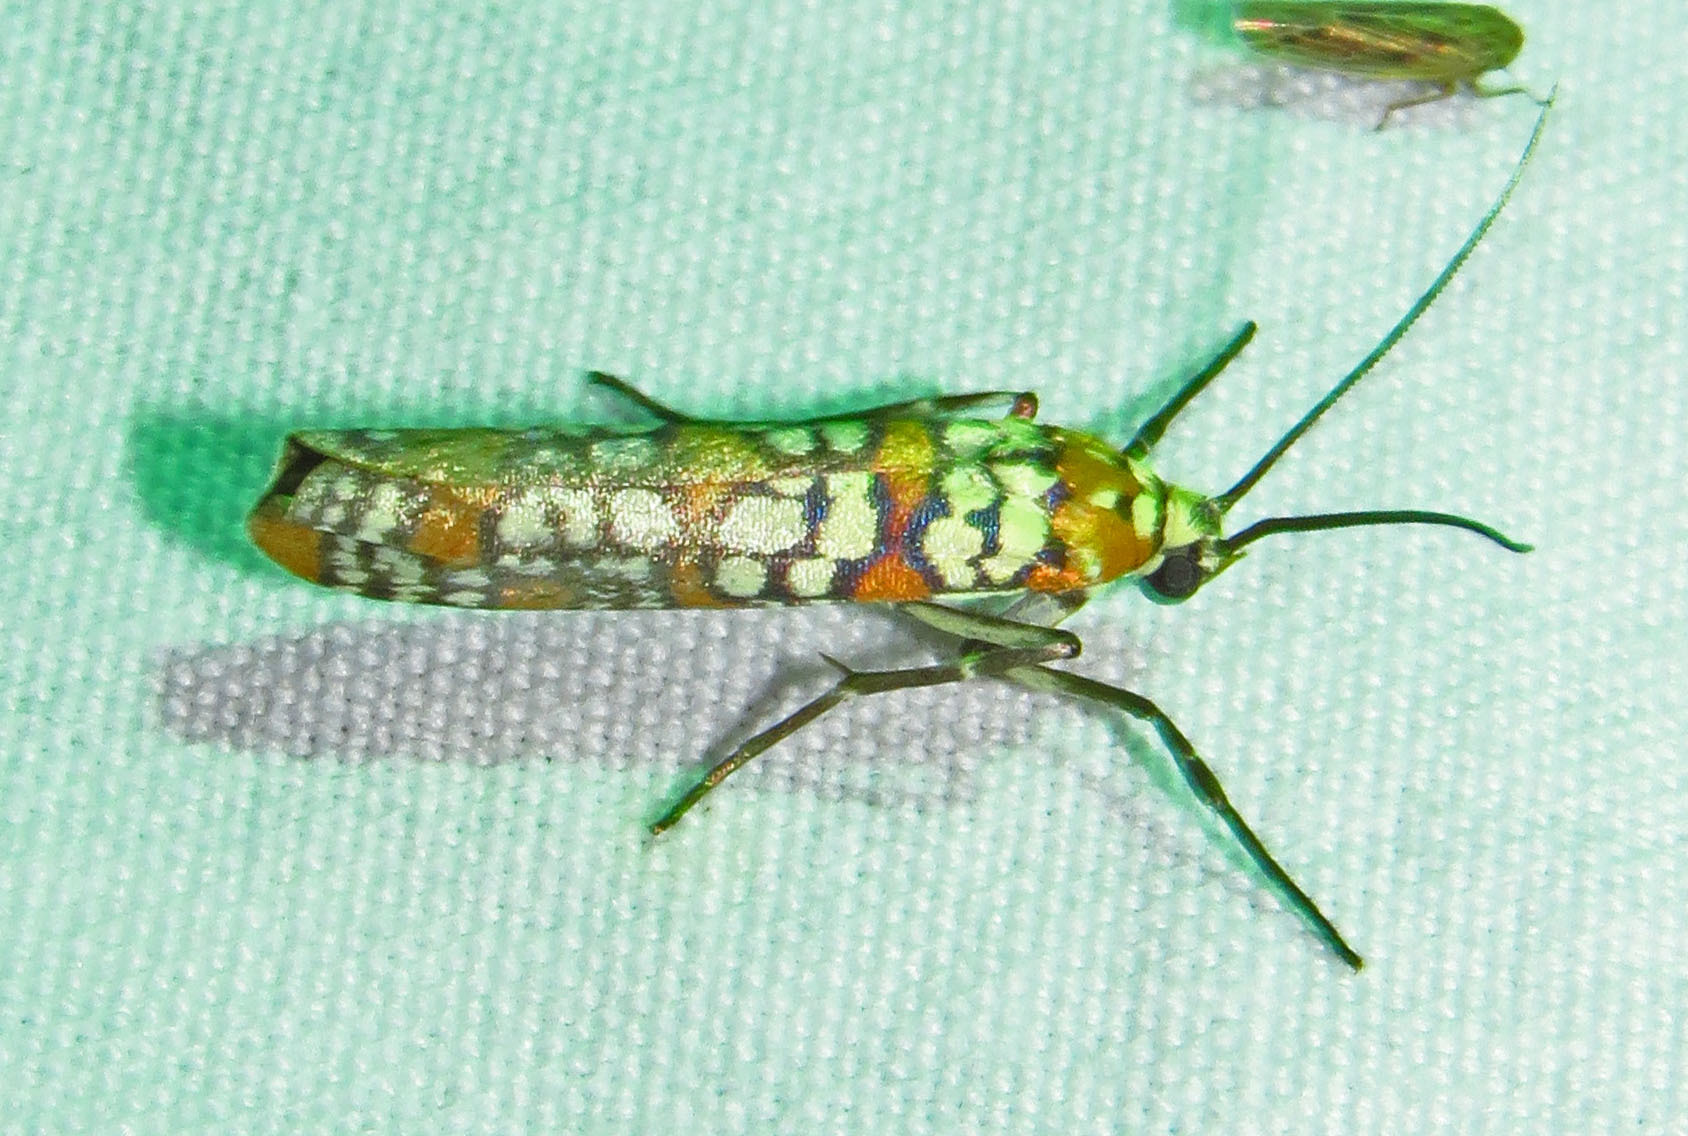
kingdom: Animalia
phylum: Arthropoda
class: Insecta
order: Lepidoptera
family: Attevidae
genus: Atteva
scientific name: Atteva punctella
